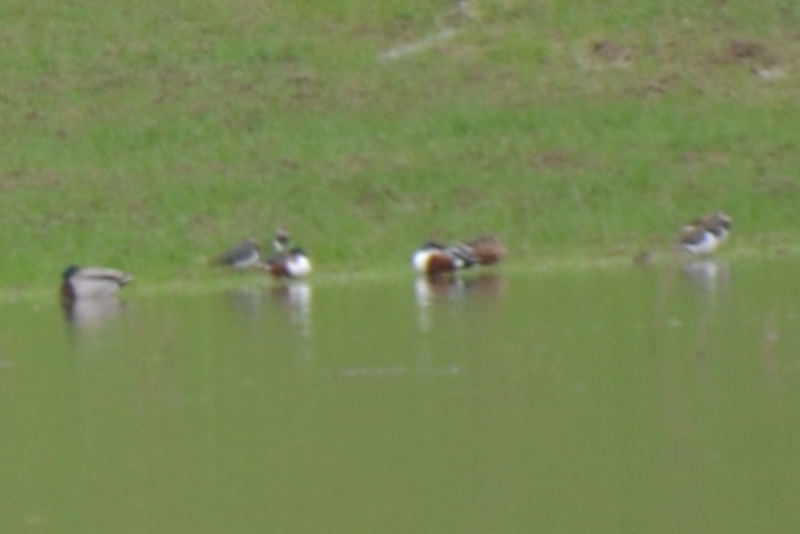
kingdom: Animalia
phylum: Chordata
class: Aves
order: Anseriformes
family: Anatidae
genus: Spatula
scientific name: Spatula clypeata
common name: Northern shoveler
